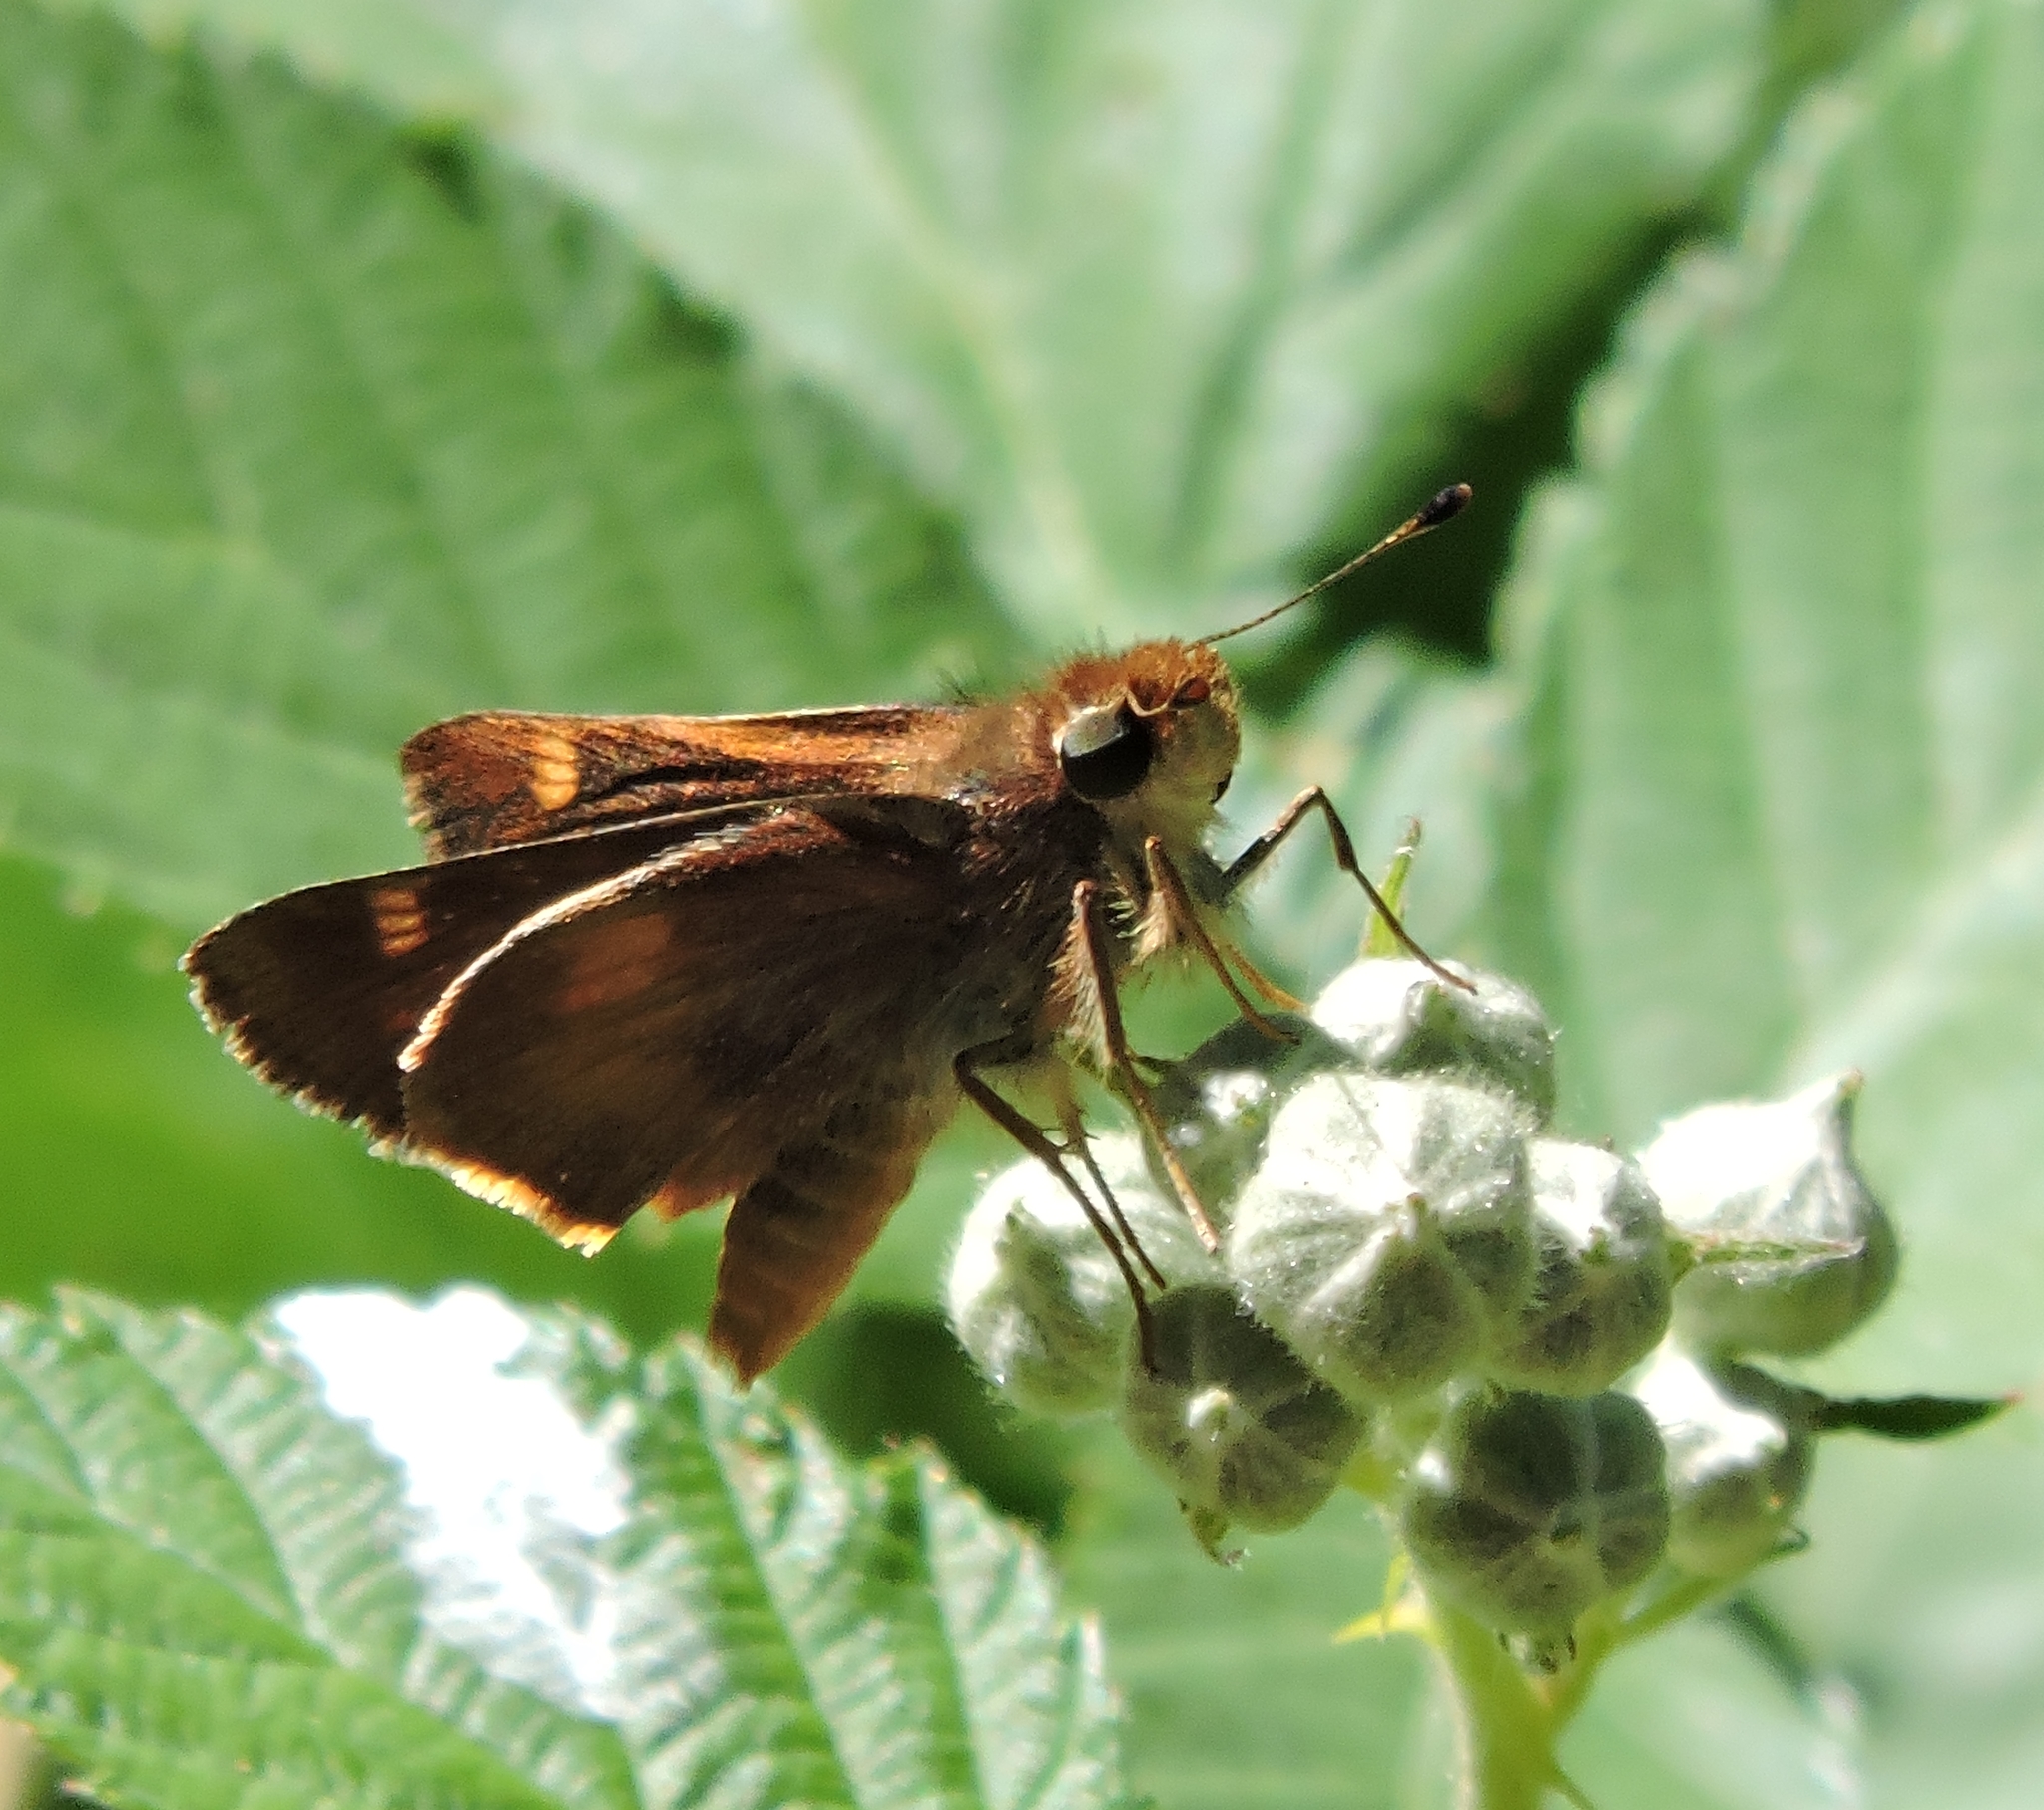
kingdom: Animalia
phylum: Arthropoda
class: Insecta
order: Lepidoptera
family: Hesperiidae
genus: Lon
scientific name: Lon melane
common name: Umber skipper
